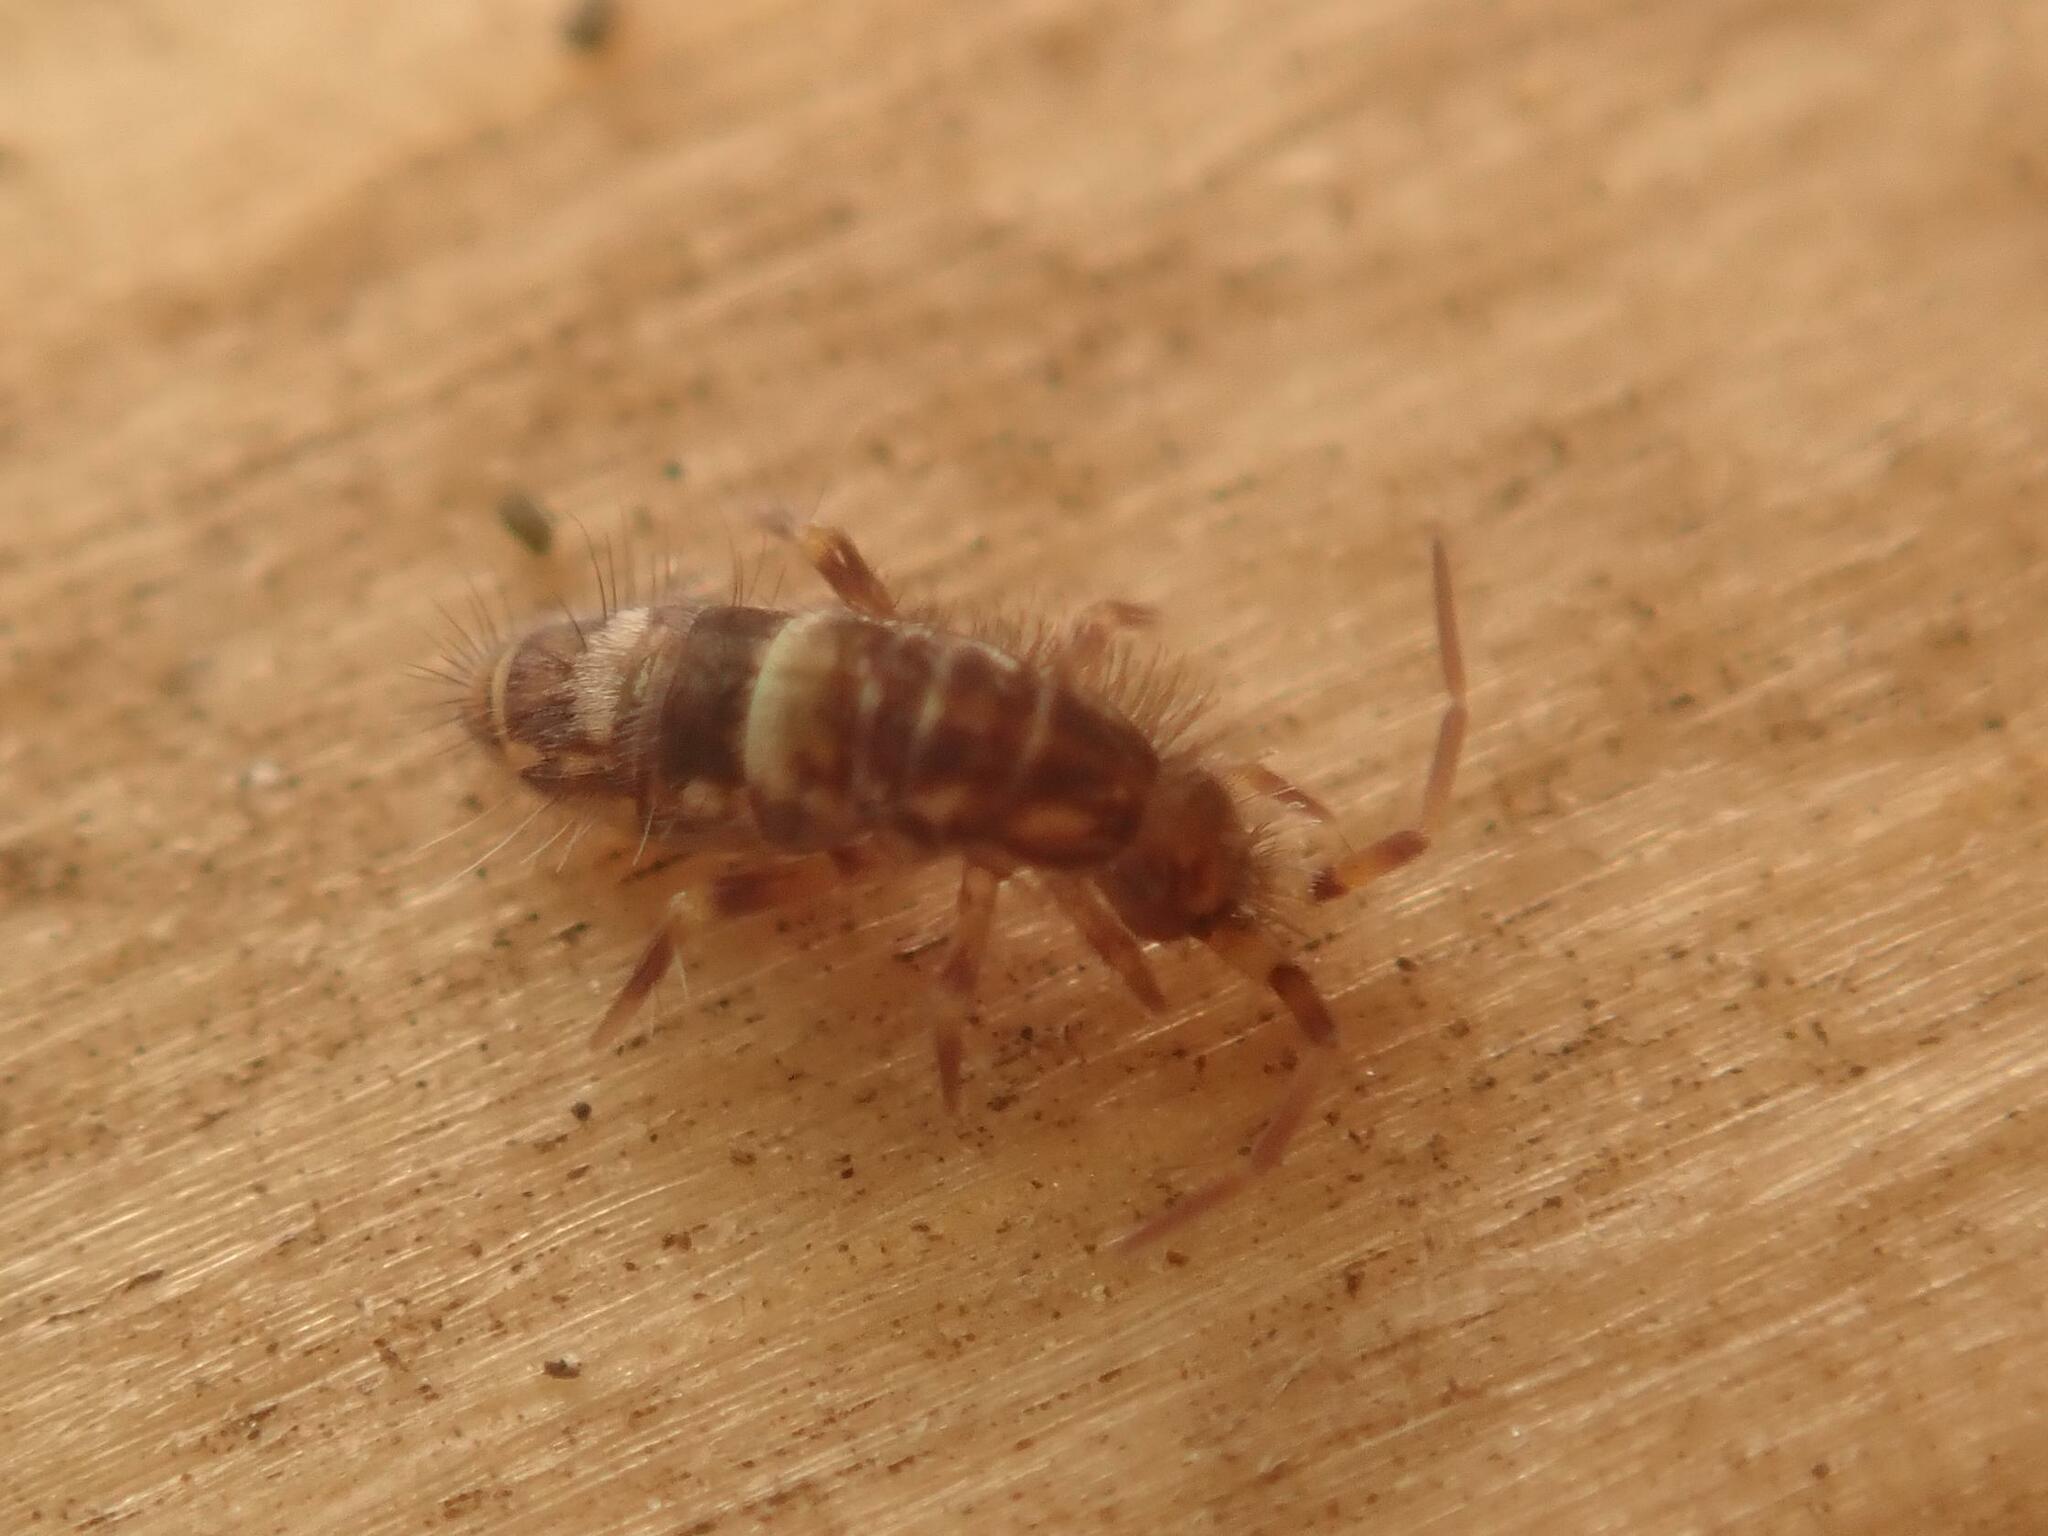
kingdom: Animalia
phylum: Arthropoda
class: Collembola
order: Entomobryomorpha
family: Orchesellidae
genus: Orchesella
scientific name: Orchesella cincta
